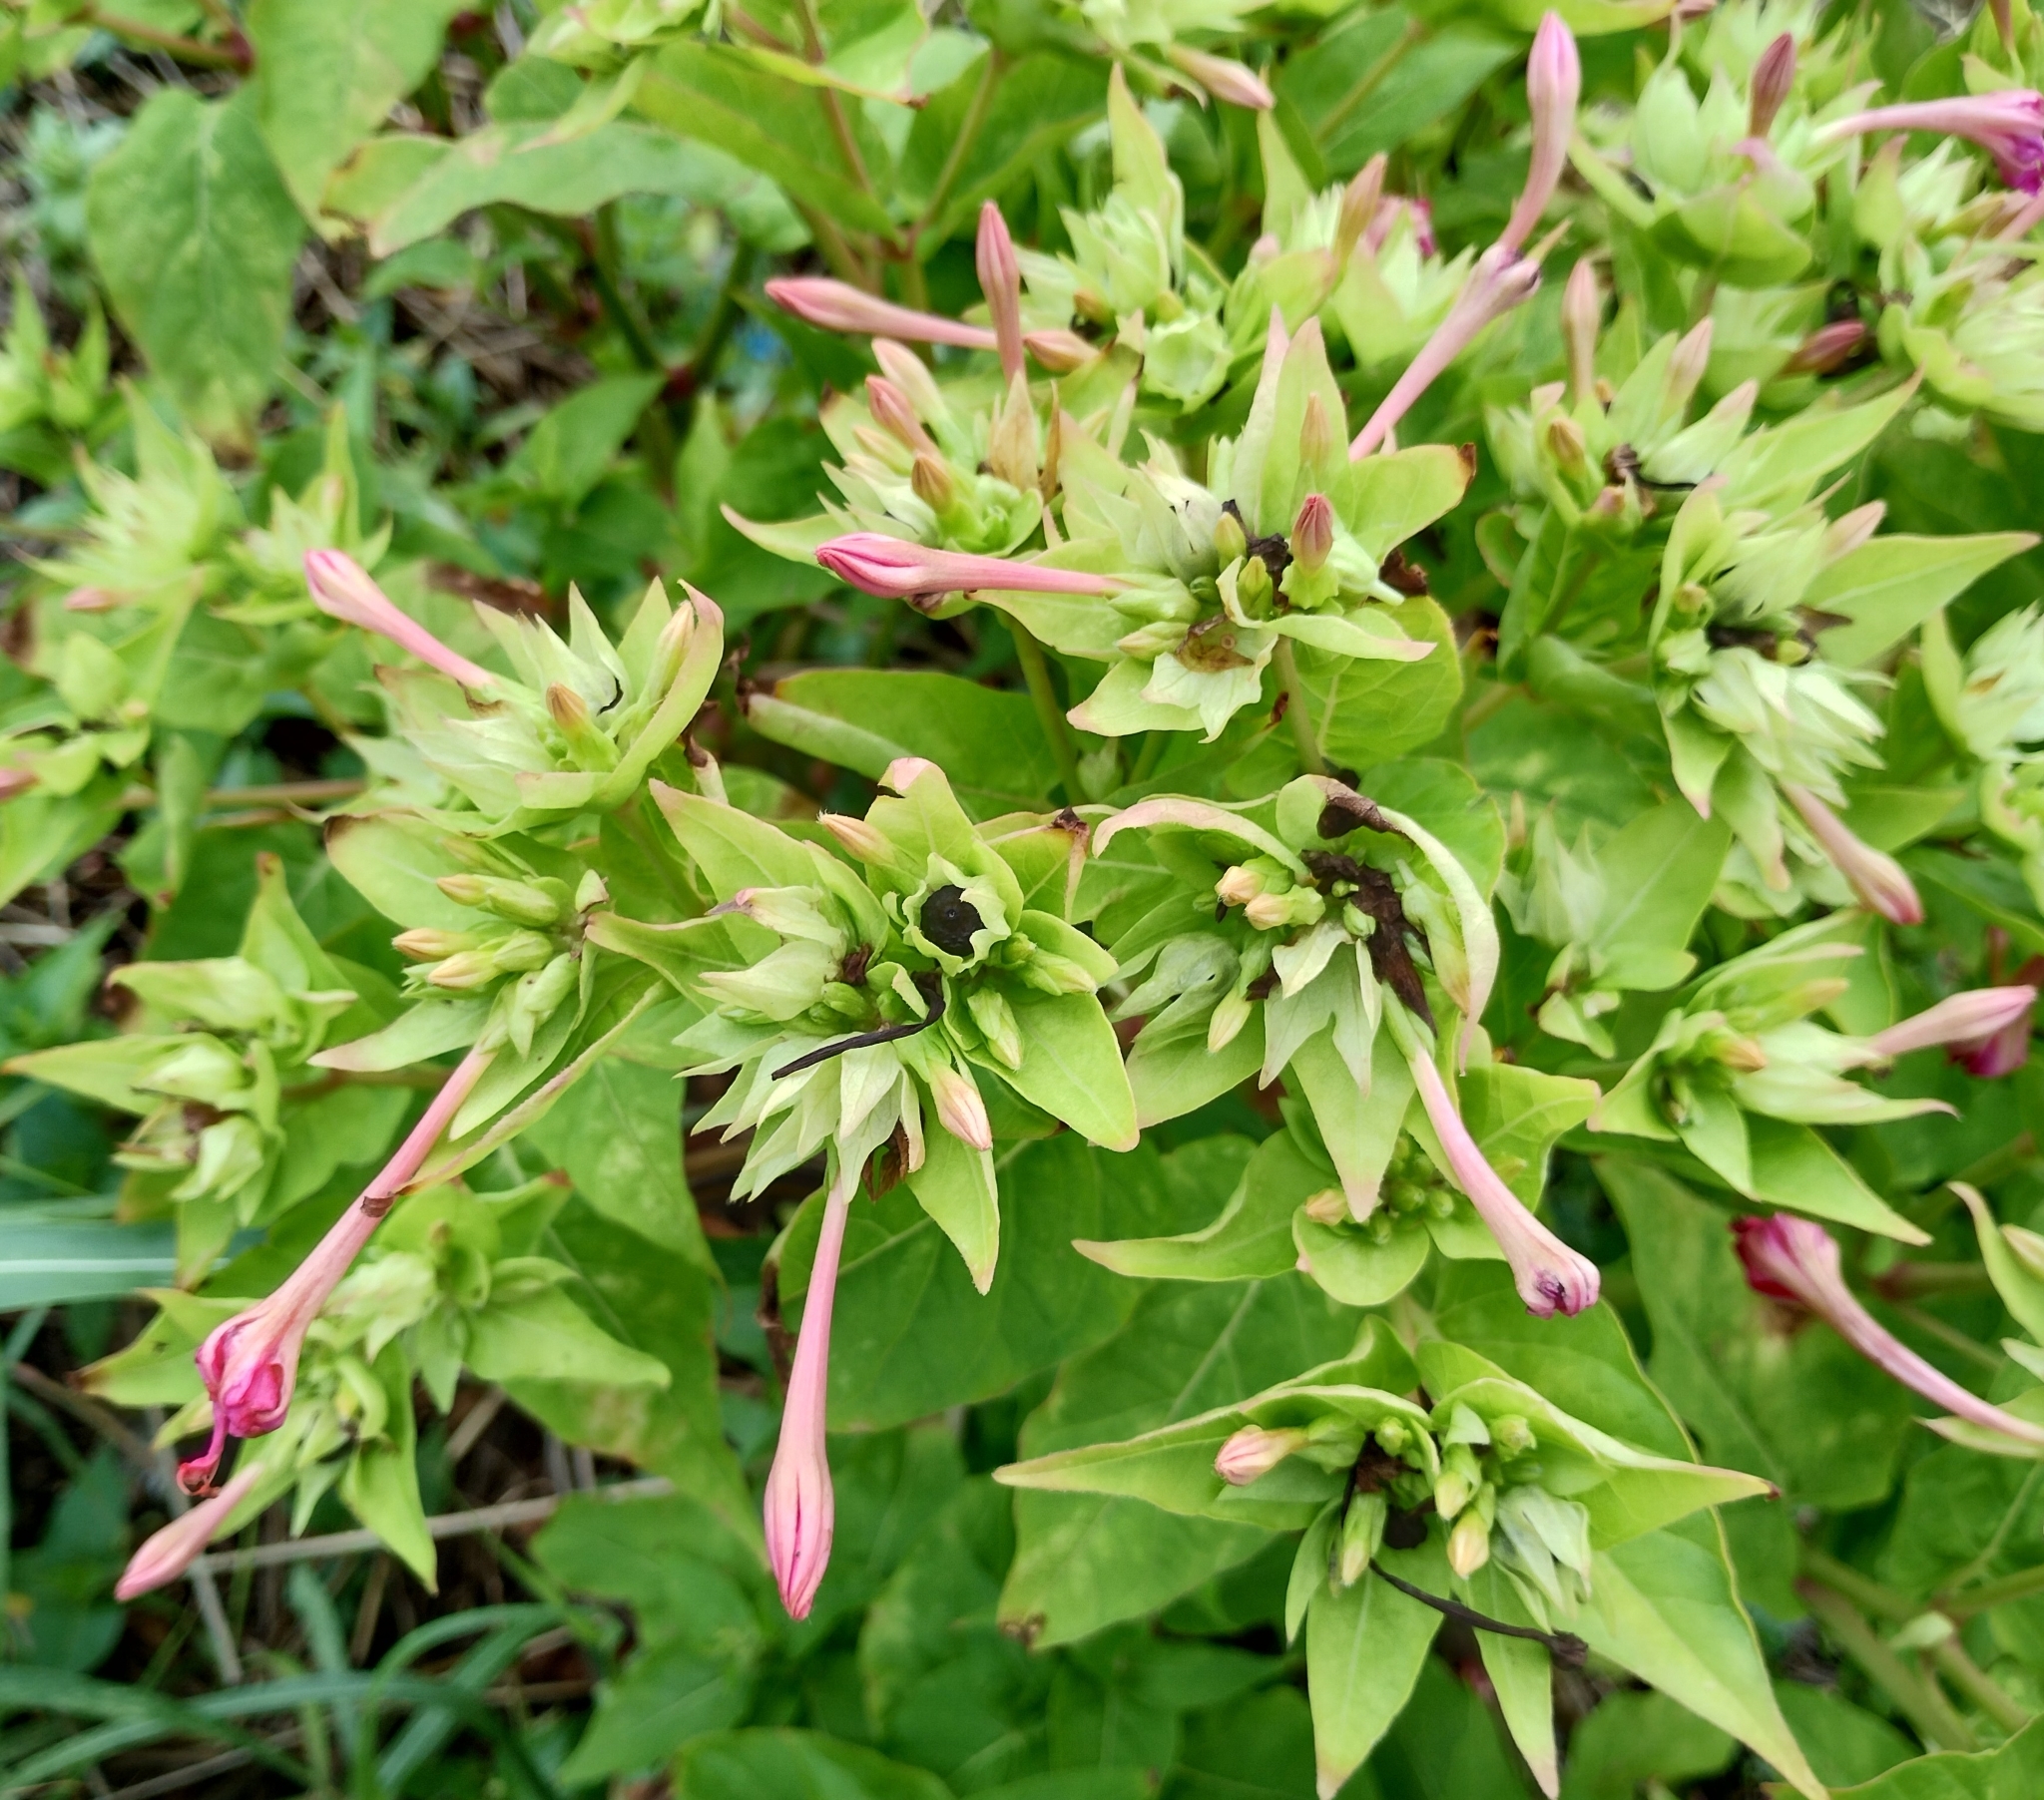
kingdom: Plantae
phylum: Tracheophyta
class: Magnoliopsida
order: Caryophyllales
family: Nyctaginaceae
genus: Mirabilis
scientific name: Mirabilis jalapa
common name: Marvel-of-peru
